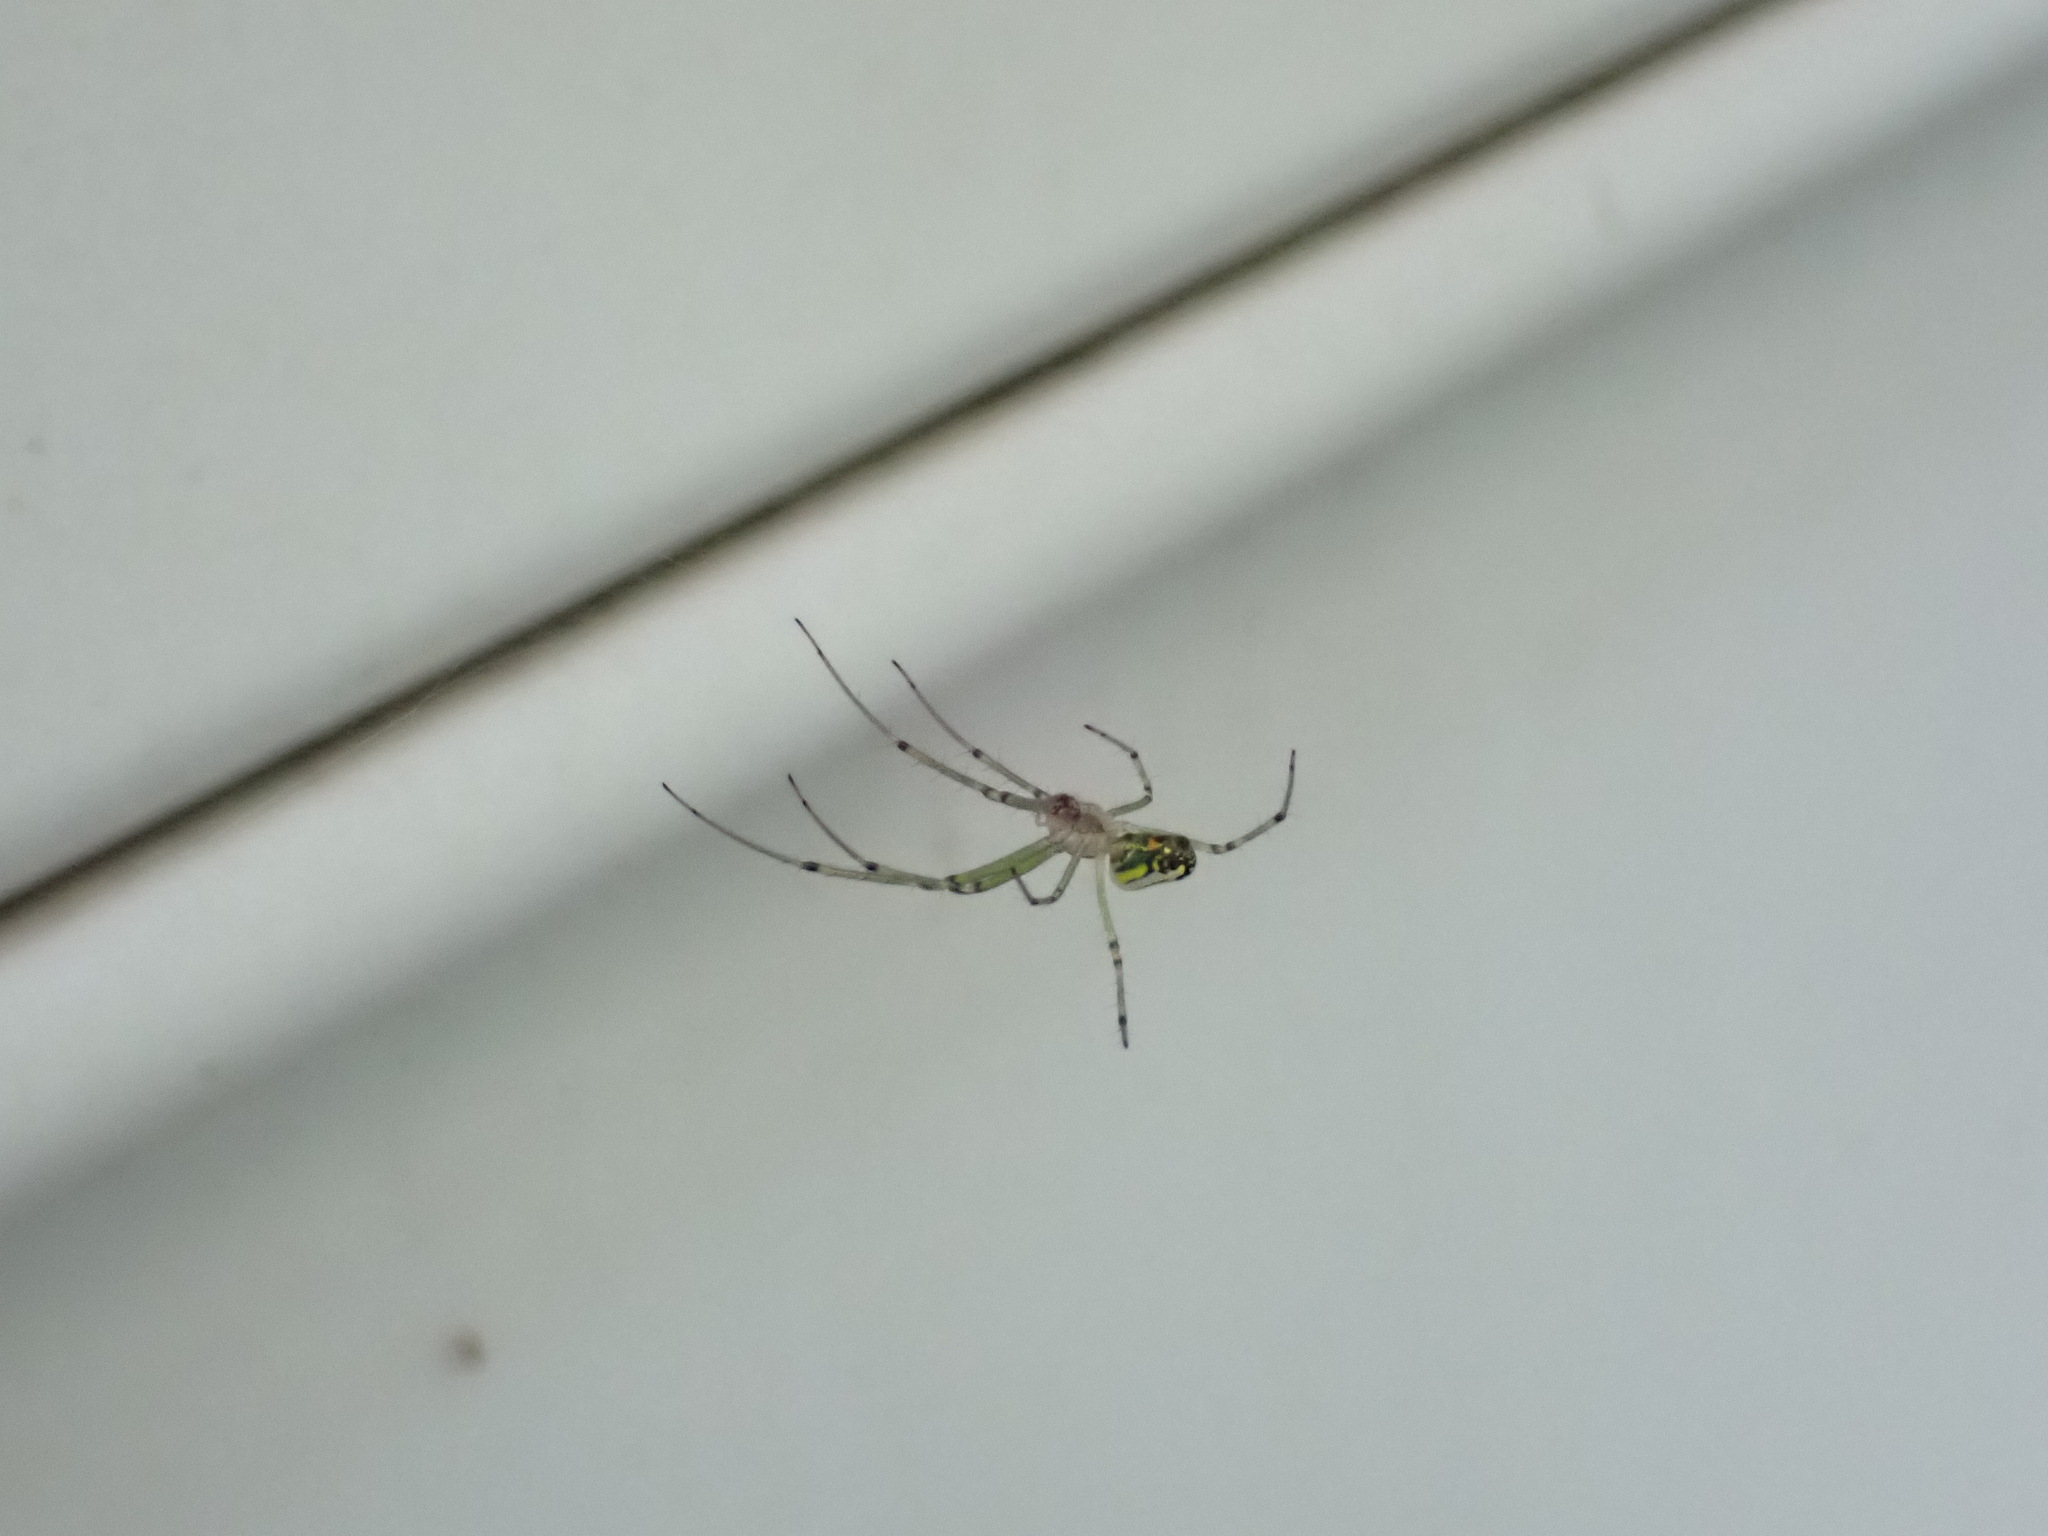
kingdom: Animalia
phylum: Arthropoda
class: Arachnida
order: Araneae
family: Tetragnathidae
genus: Leucauge
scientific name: Leucauge venusta
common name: Longjawed orb weavers
